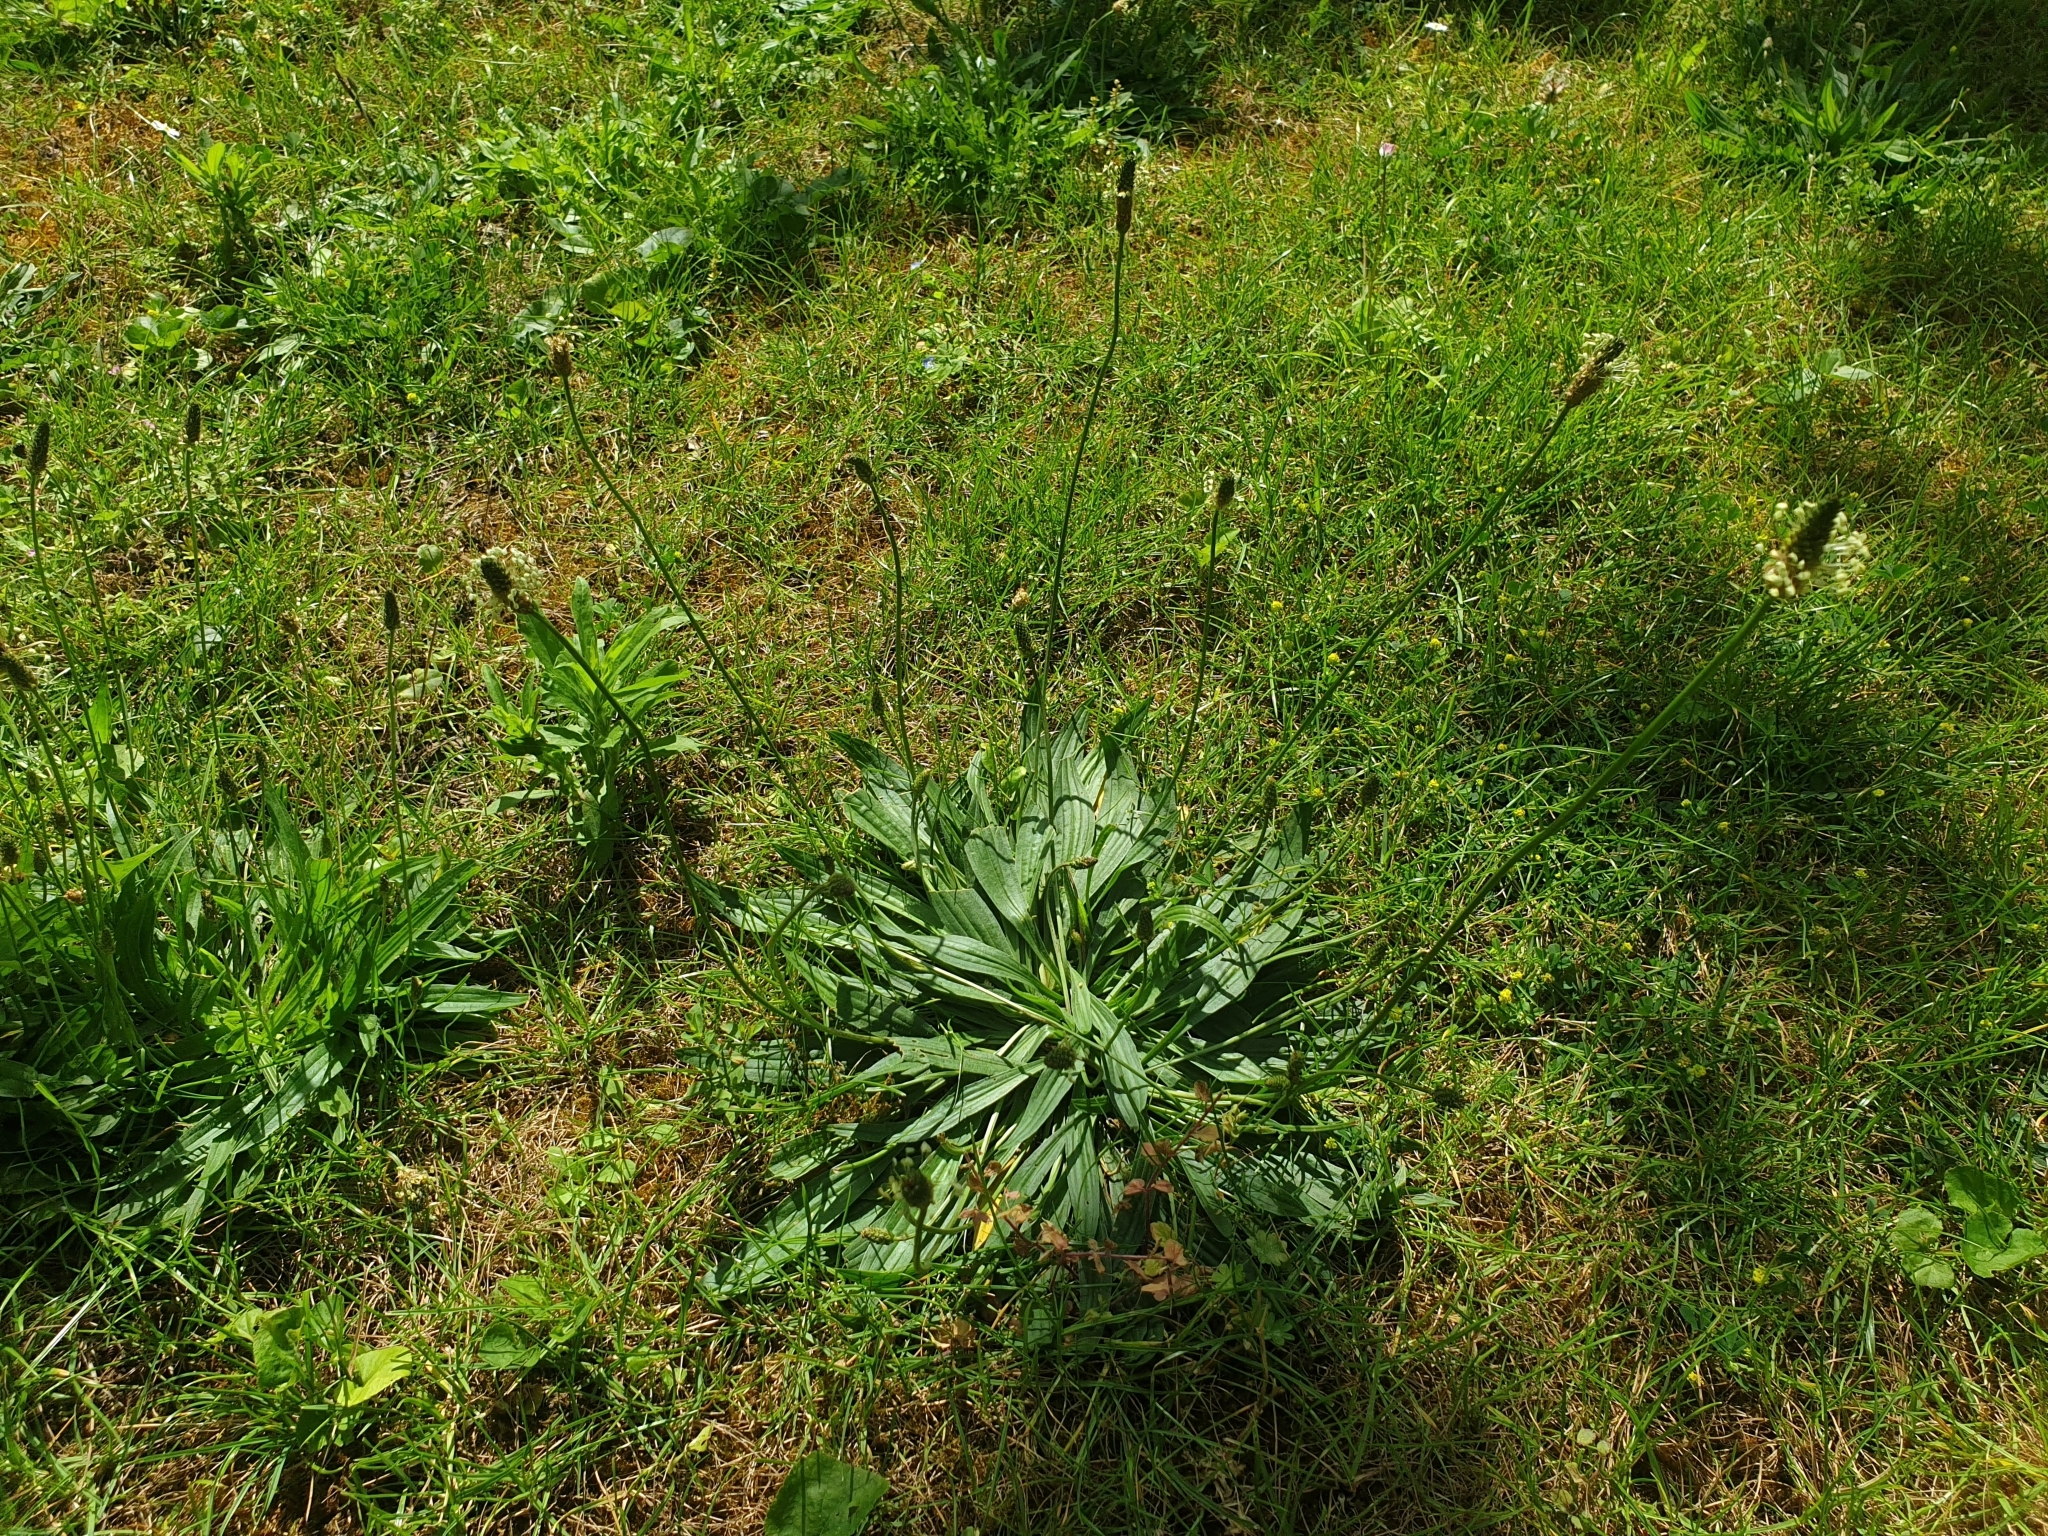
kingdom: Plantae
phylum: Tracheophyta
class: Magnoliopsida
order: Lamiales
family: Plantaginaceae
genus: Plantago
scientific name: Plantago lanceolata
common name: Ribwort plantain
